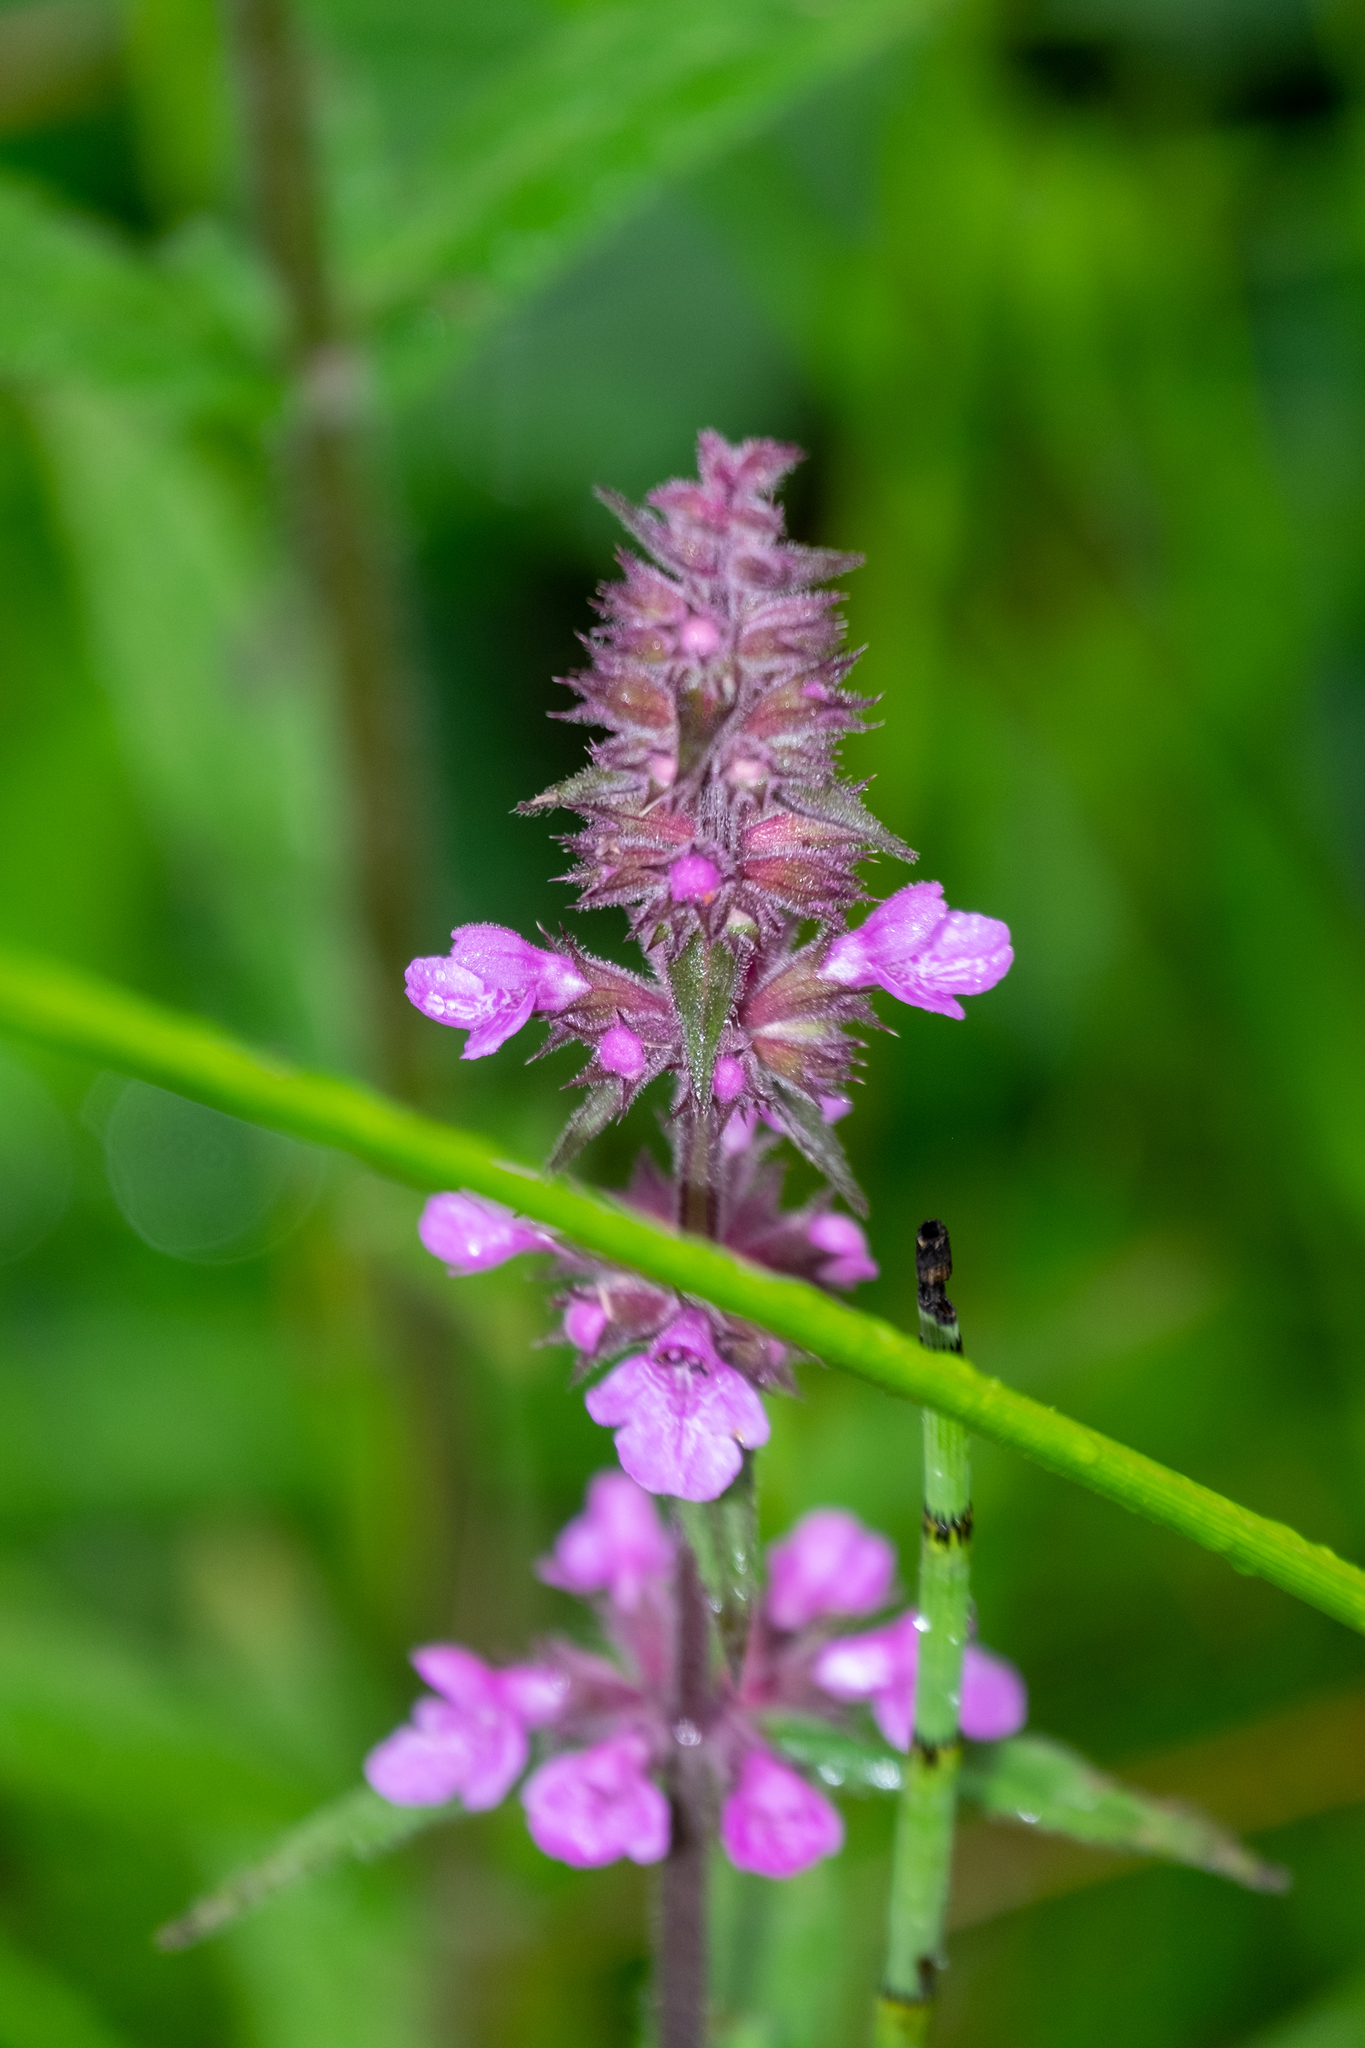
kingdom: Plantae
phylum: Tracheophyta
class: Magnoliopsida
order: Lamiales
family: Lamiaceae
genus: Stachys
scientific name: Stachys palustris
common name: Marsh woundwort
